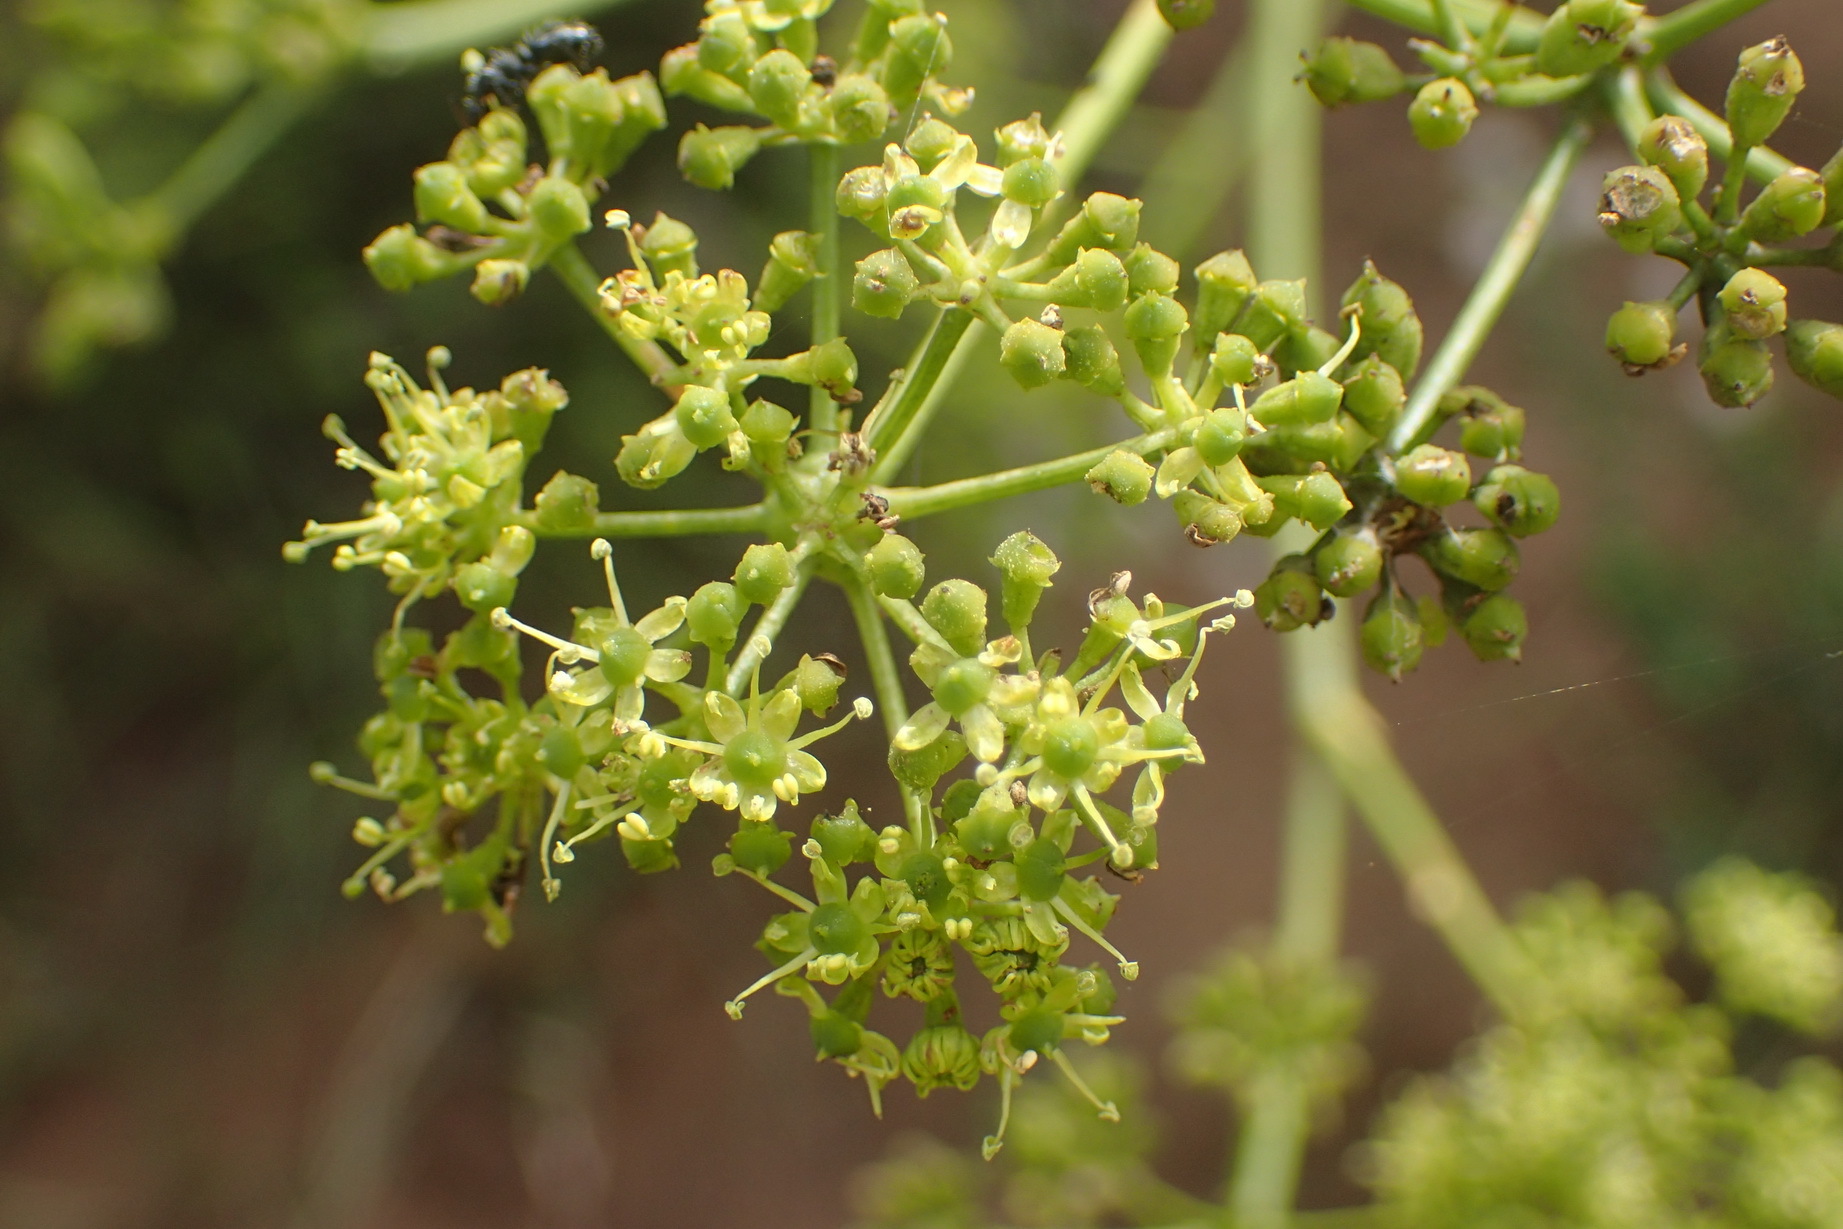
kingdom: Plantae
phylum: Tracheophyta
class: Magnoliopsida
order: Apiales
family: Apiaceae
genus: Anginon
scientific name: Anginon difforme
